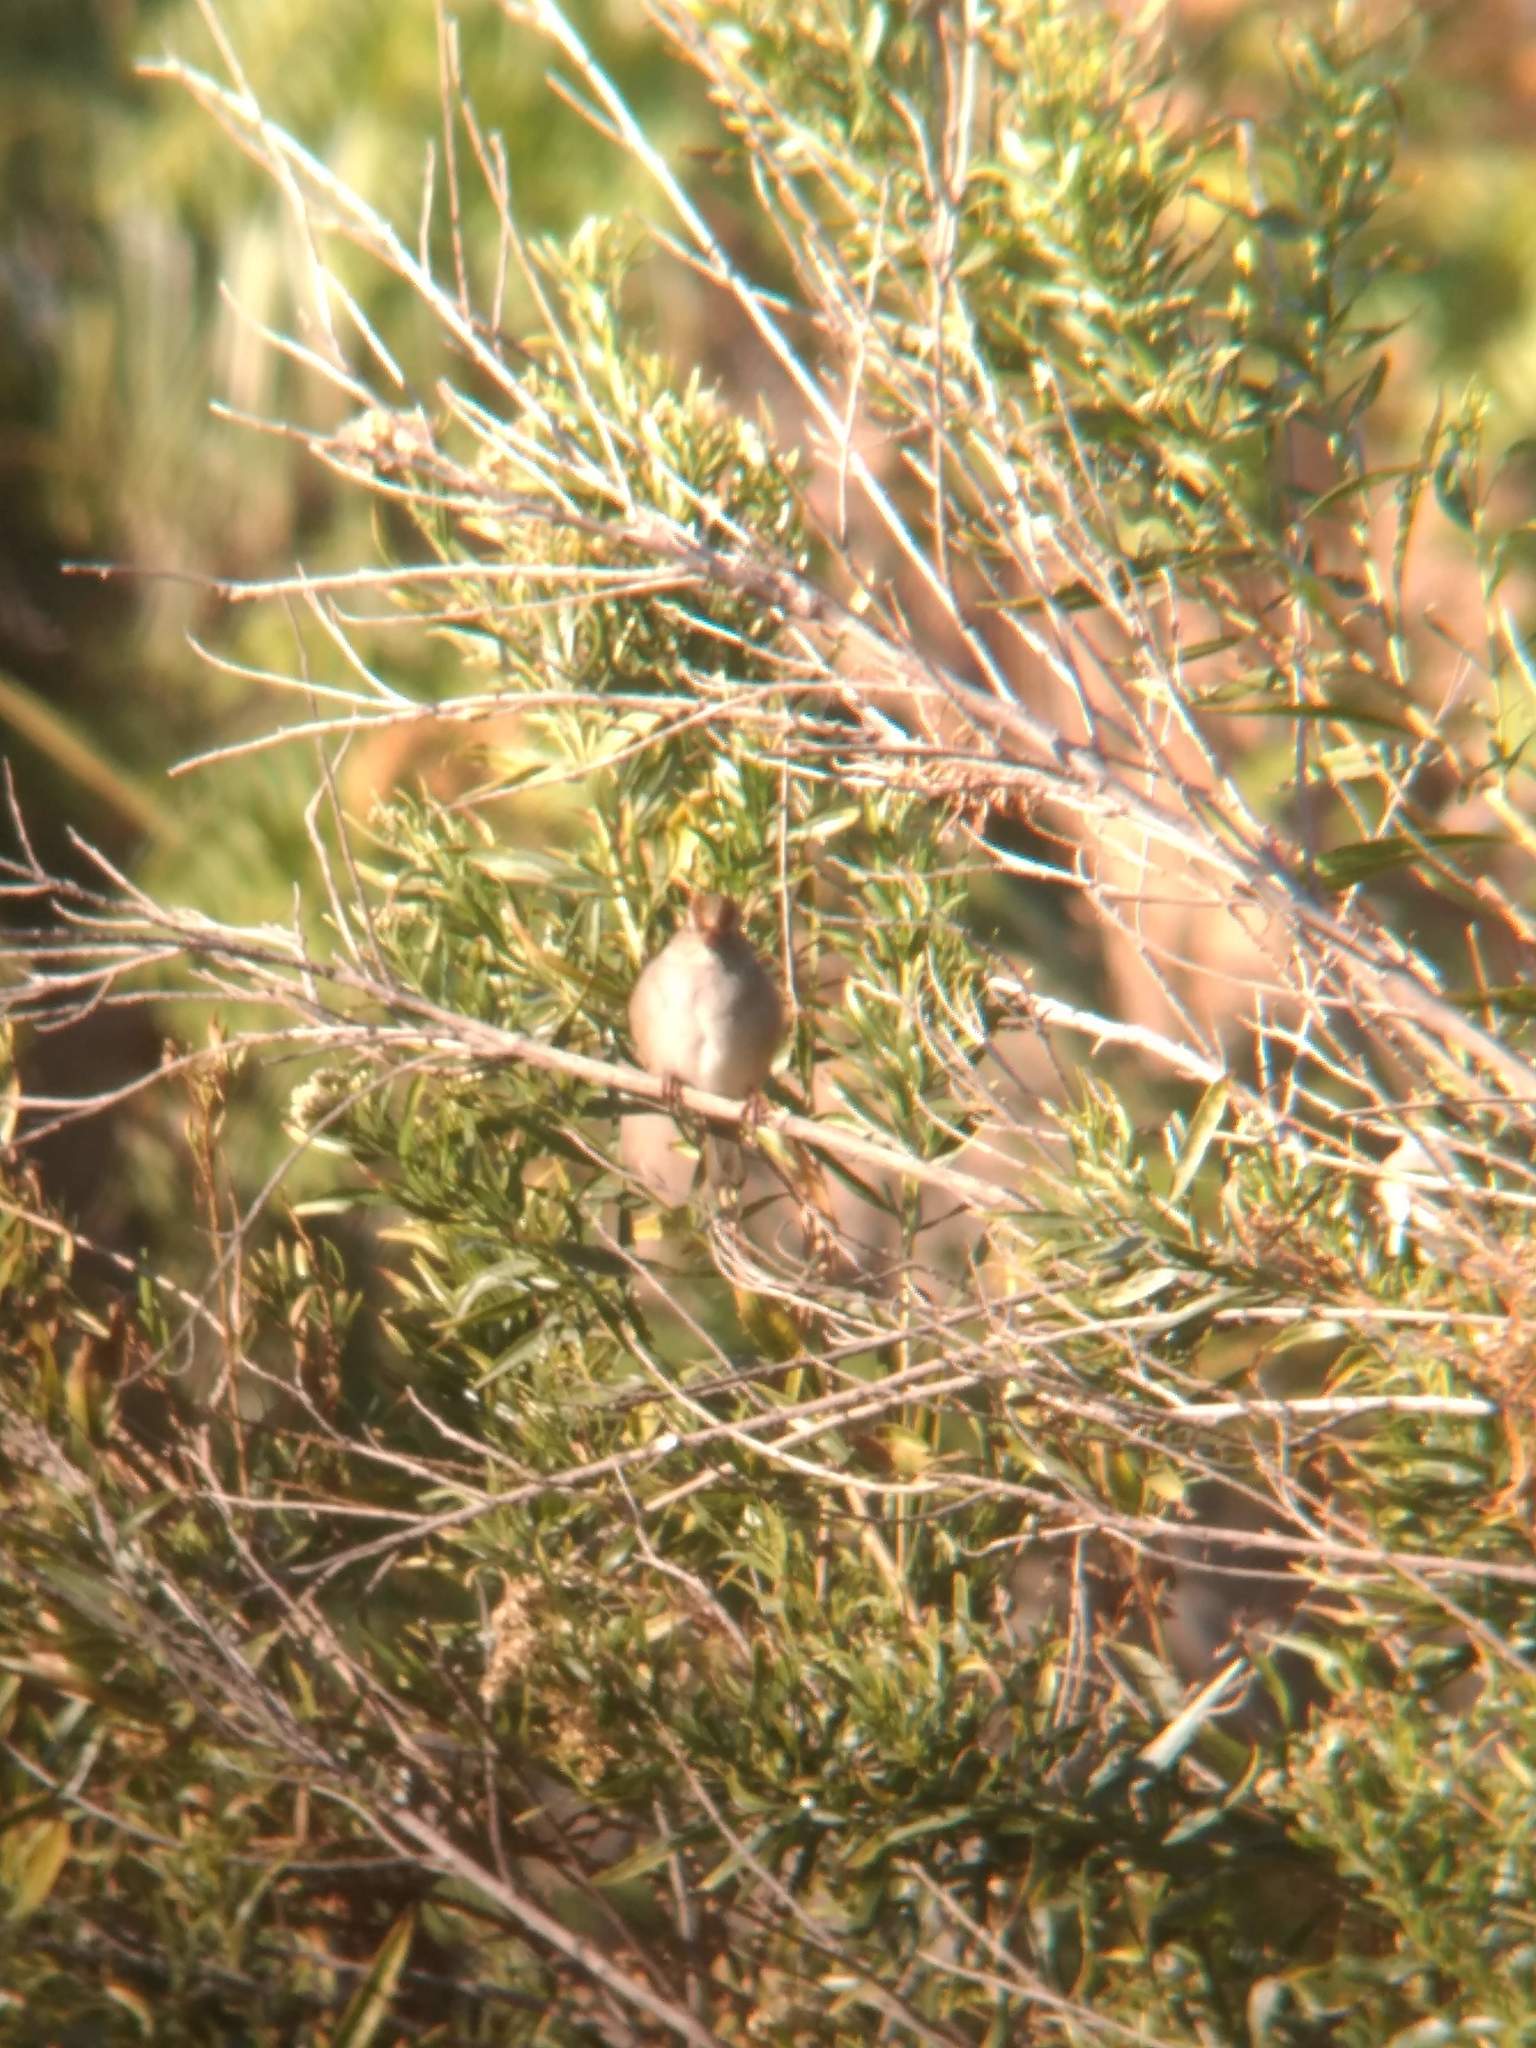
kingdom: Animalia
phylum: Chordata
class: Aves
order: Passeriformes
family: Passerellidae
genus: Zonotrichia
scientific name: Zonotrichia leucophrys
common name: White-crowned sparrow
